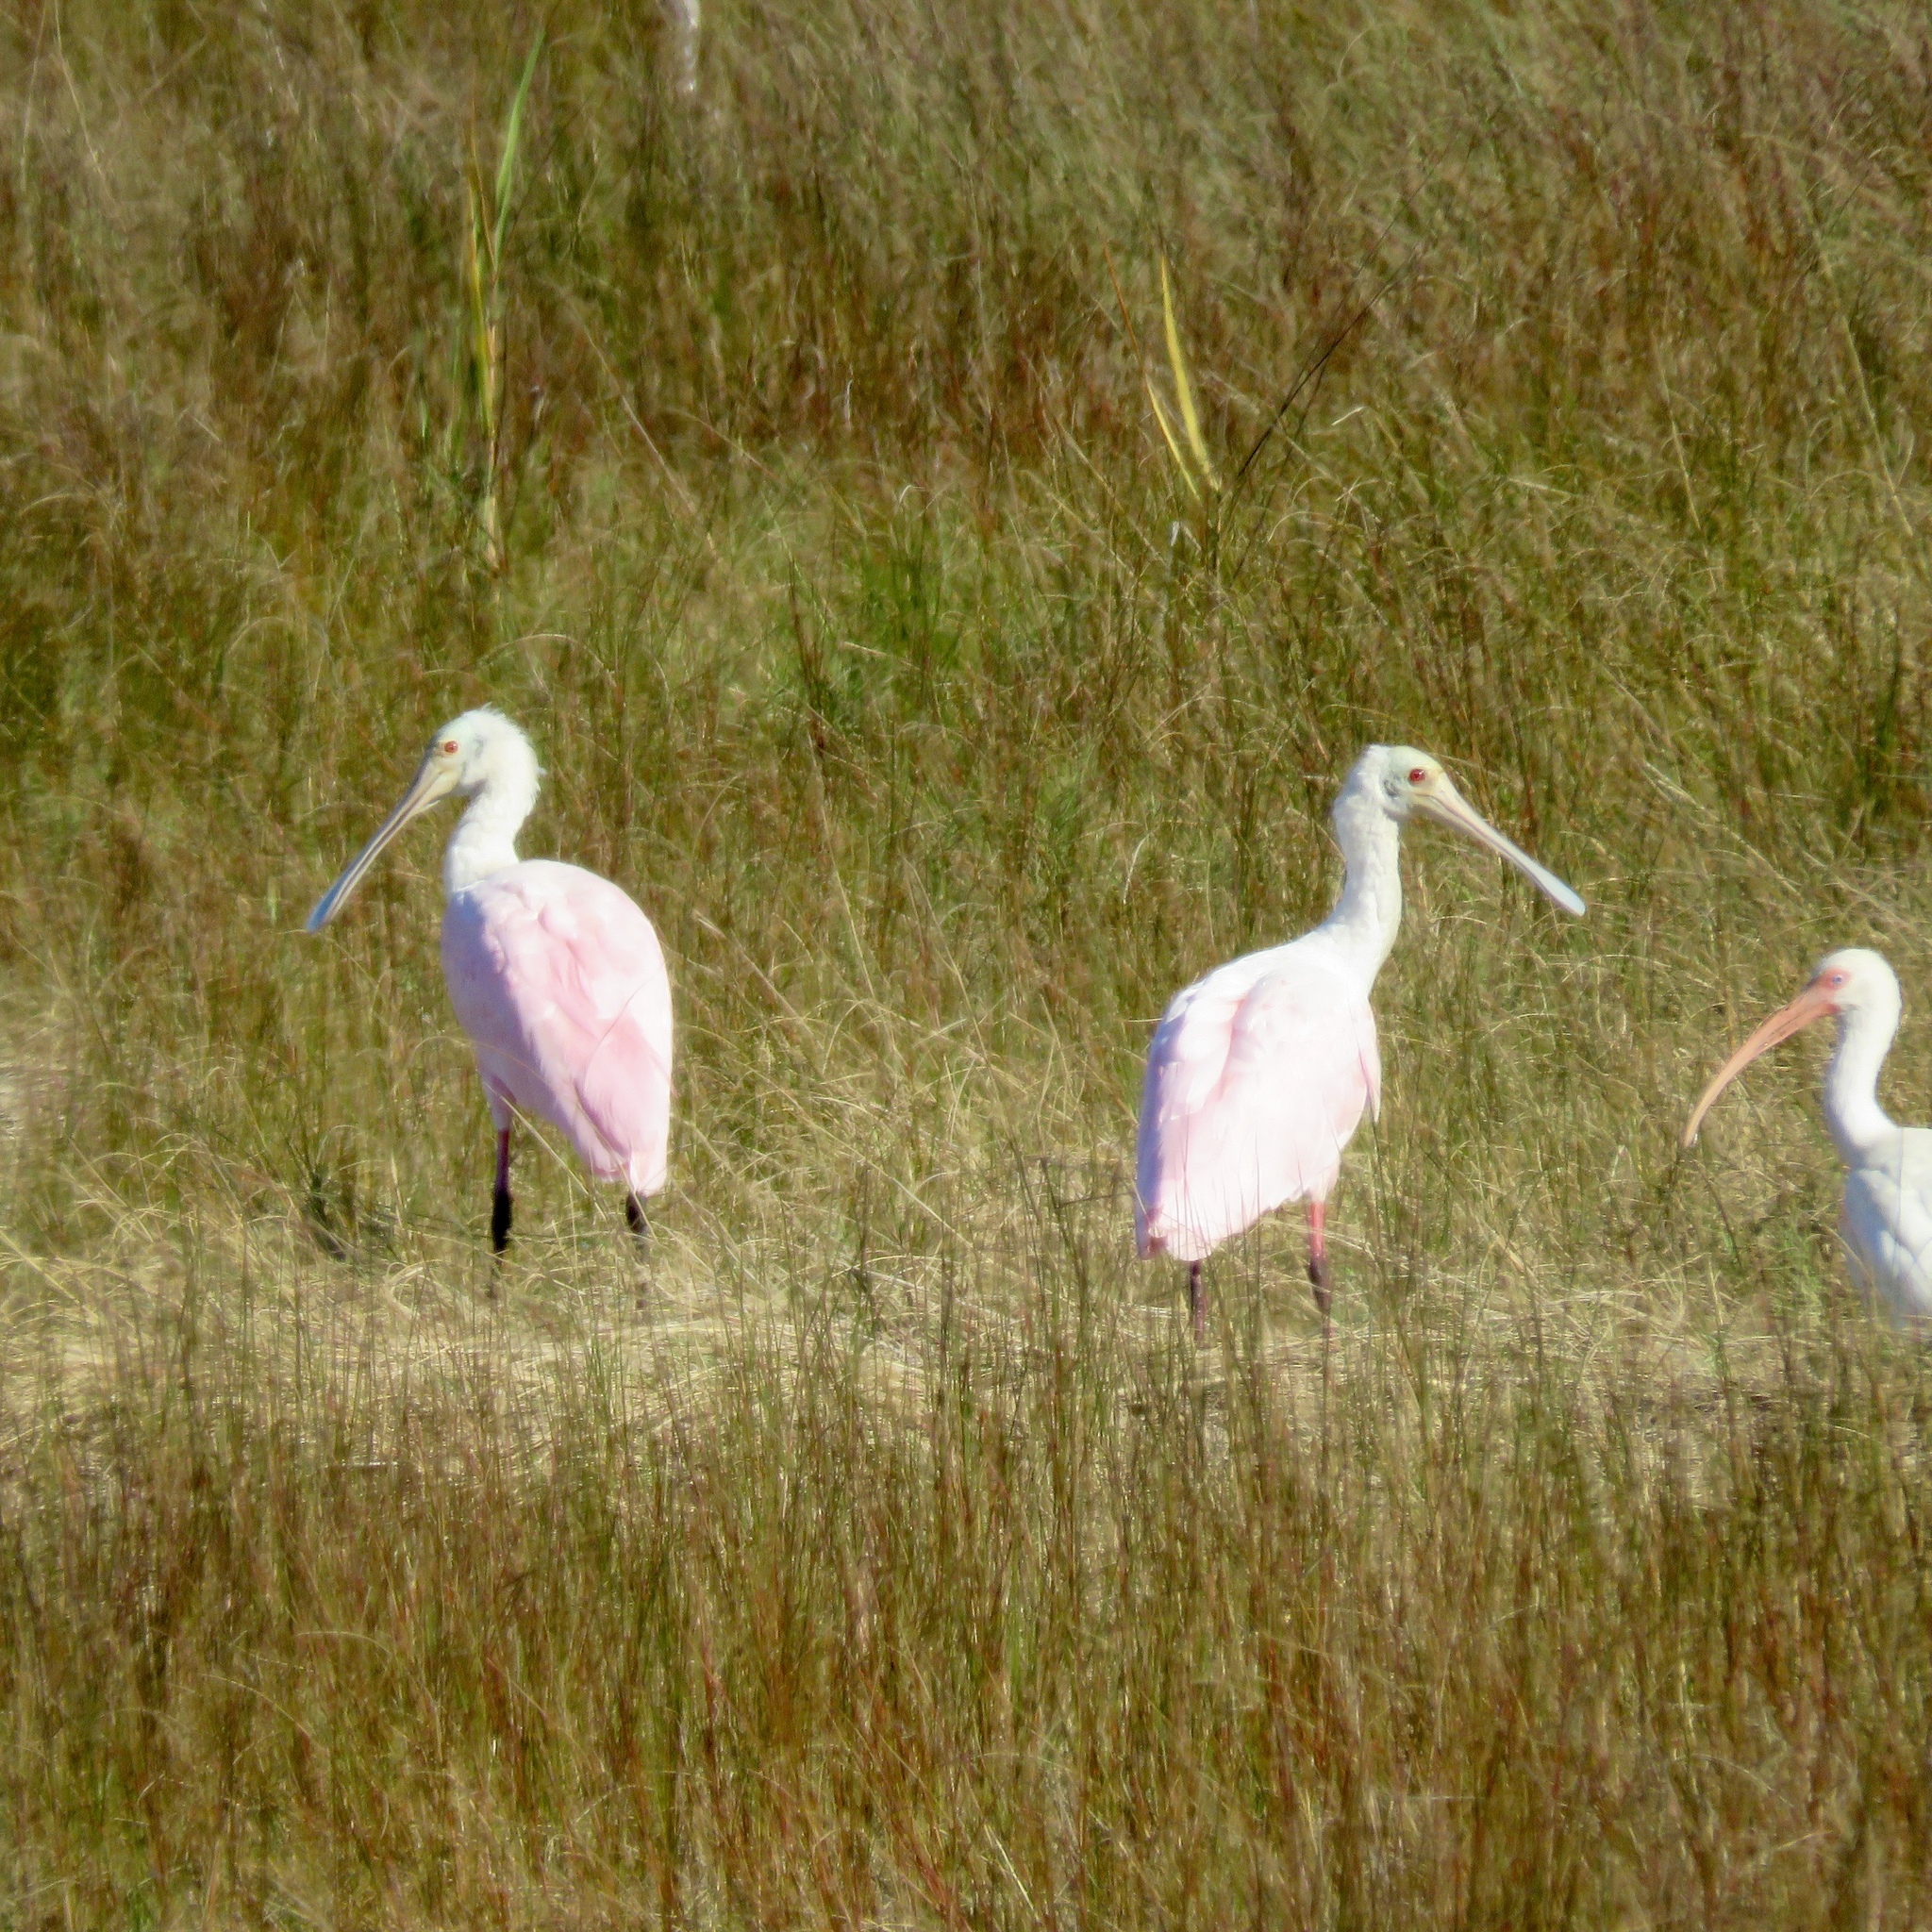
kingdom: Animalia
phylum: Chordata
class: Aves
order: Pelecaniformes
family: Threskiornithidae
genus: Platalea
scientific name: Platalea ajaja
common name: Roseate spoonbill
